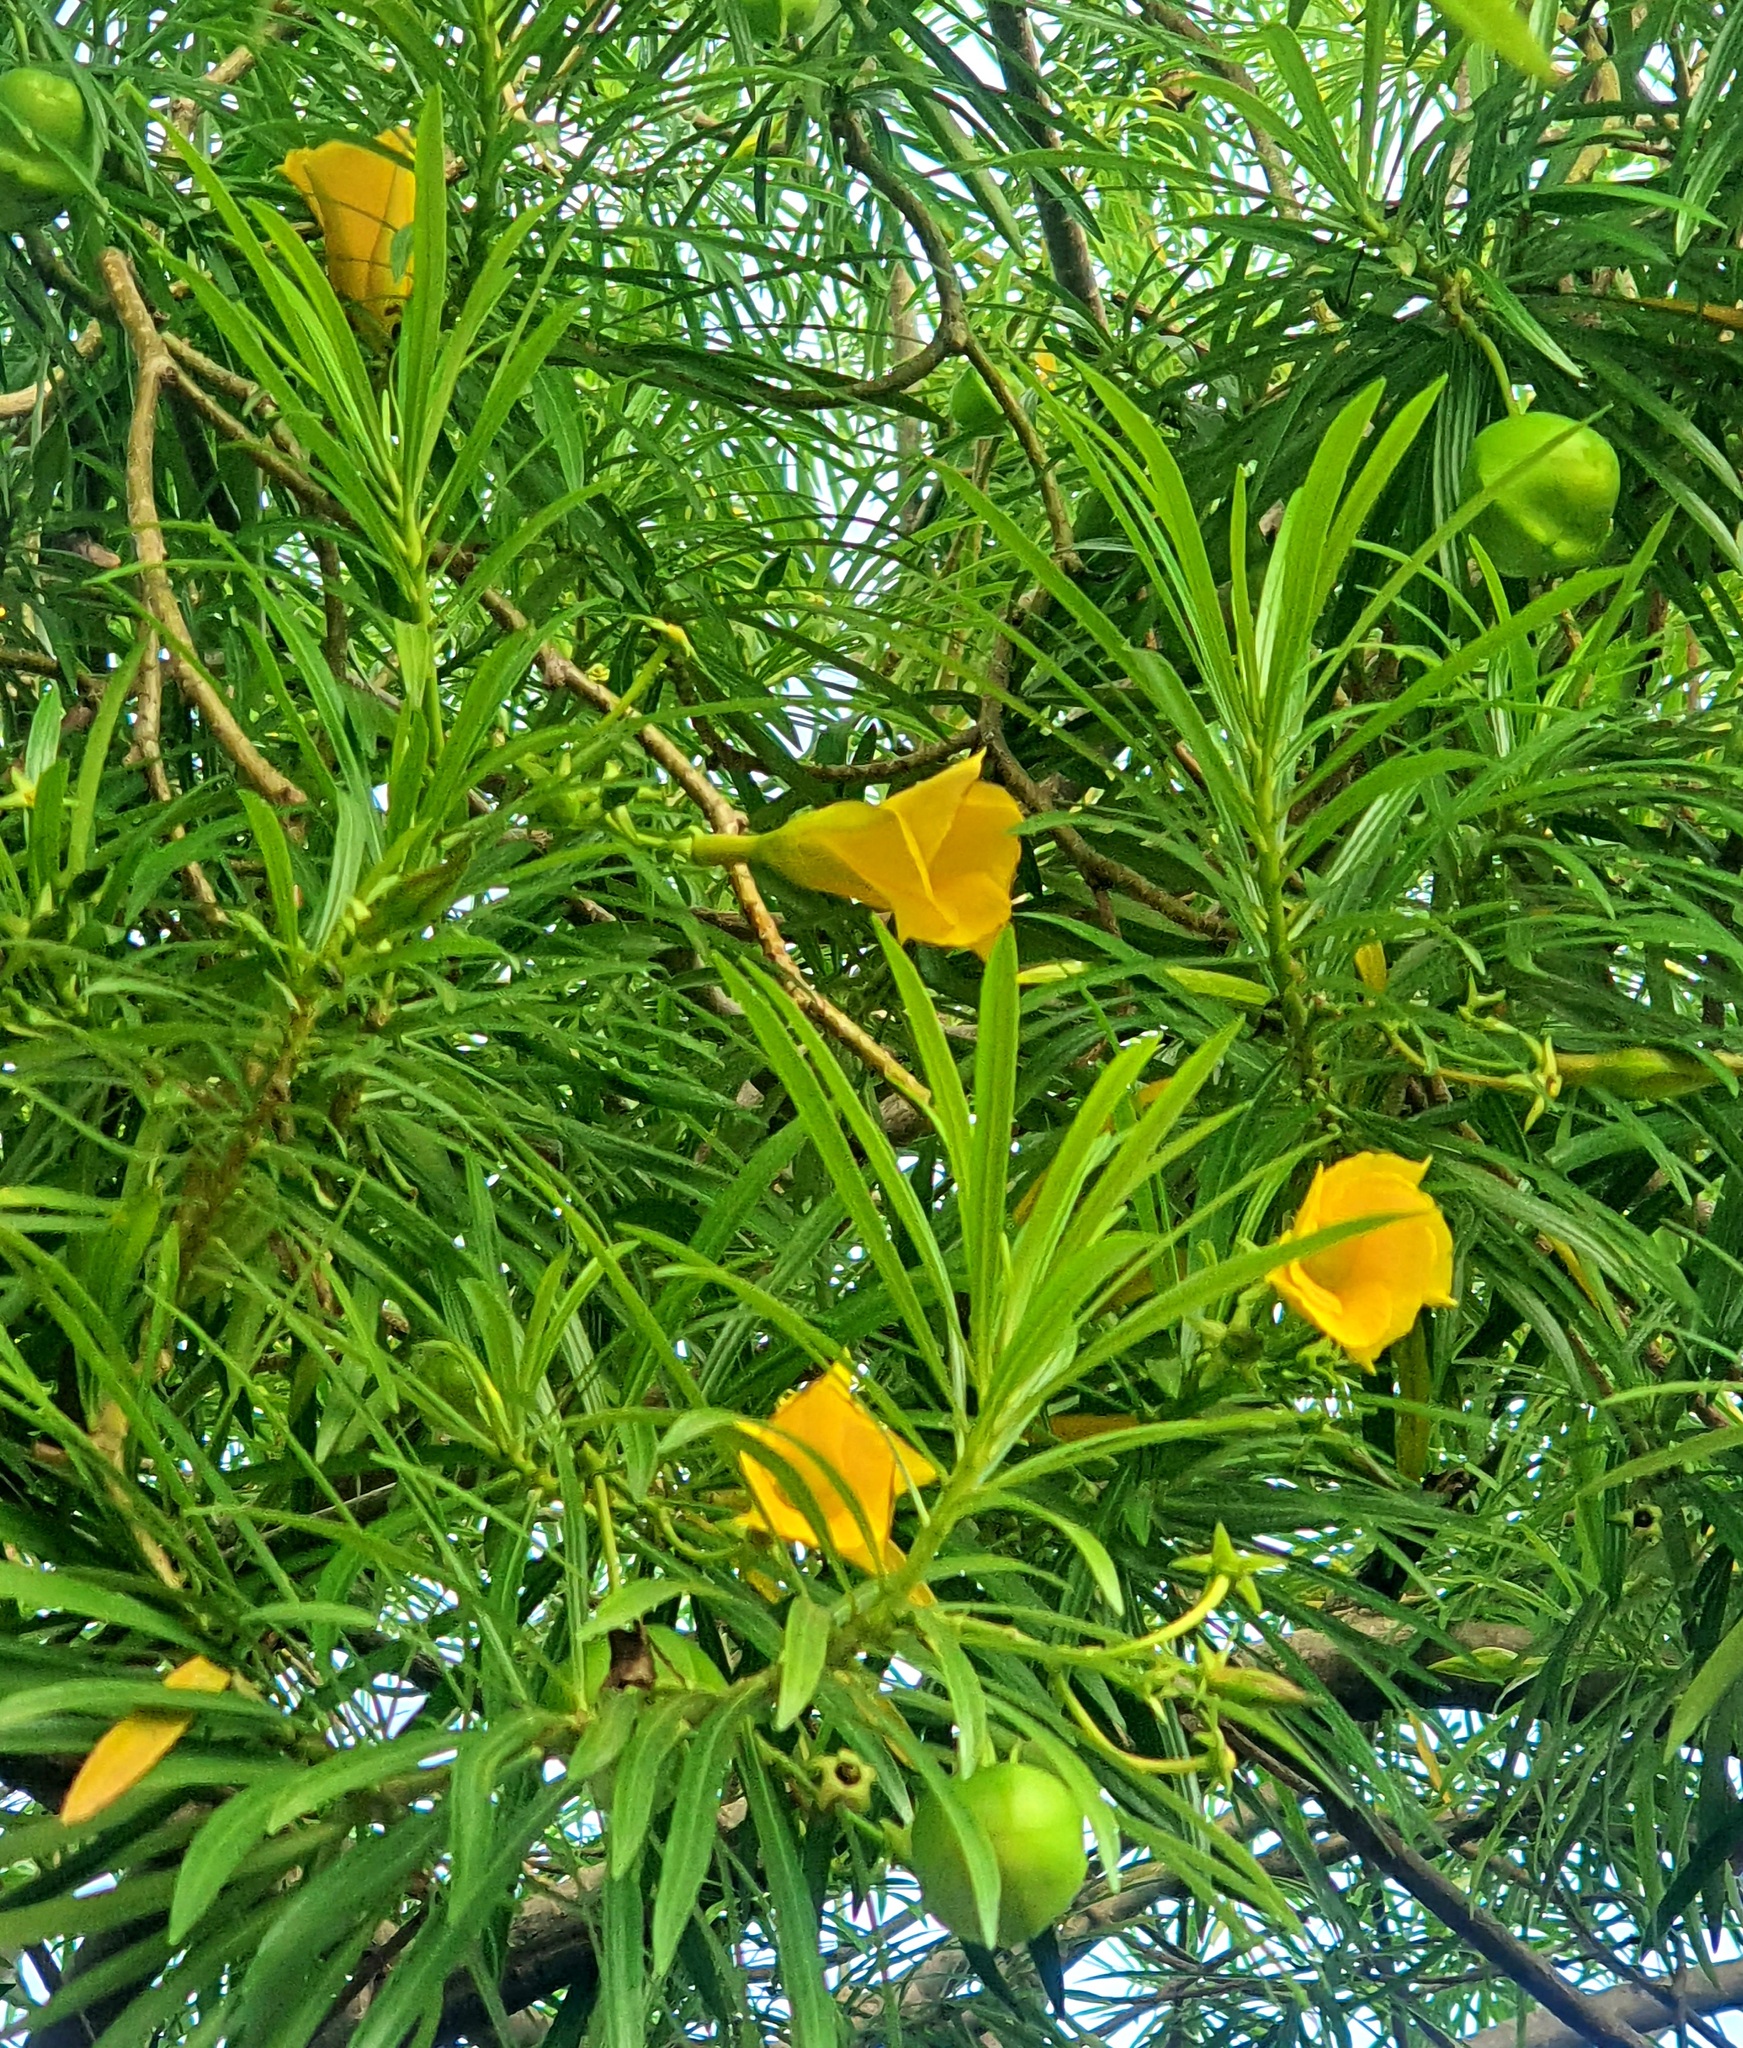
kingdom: Plantae
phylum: Tracheophyta
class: Magnoliopsida
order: Gentianales
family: Apocynaceae
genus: Cascabela
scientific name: Cascabela thevetia
